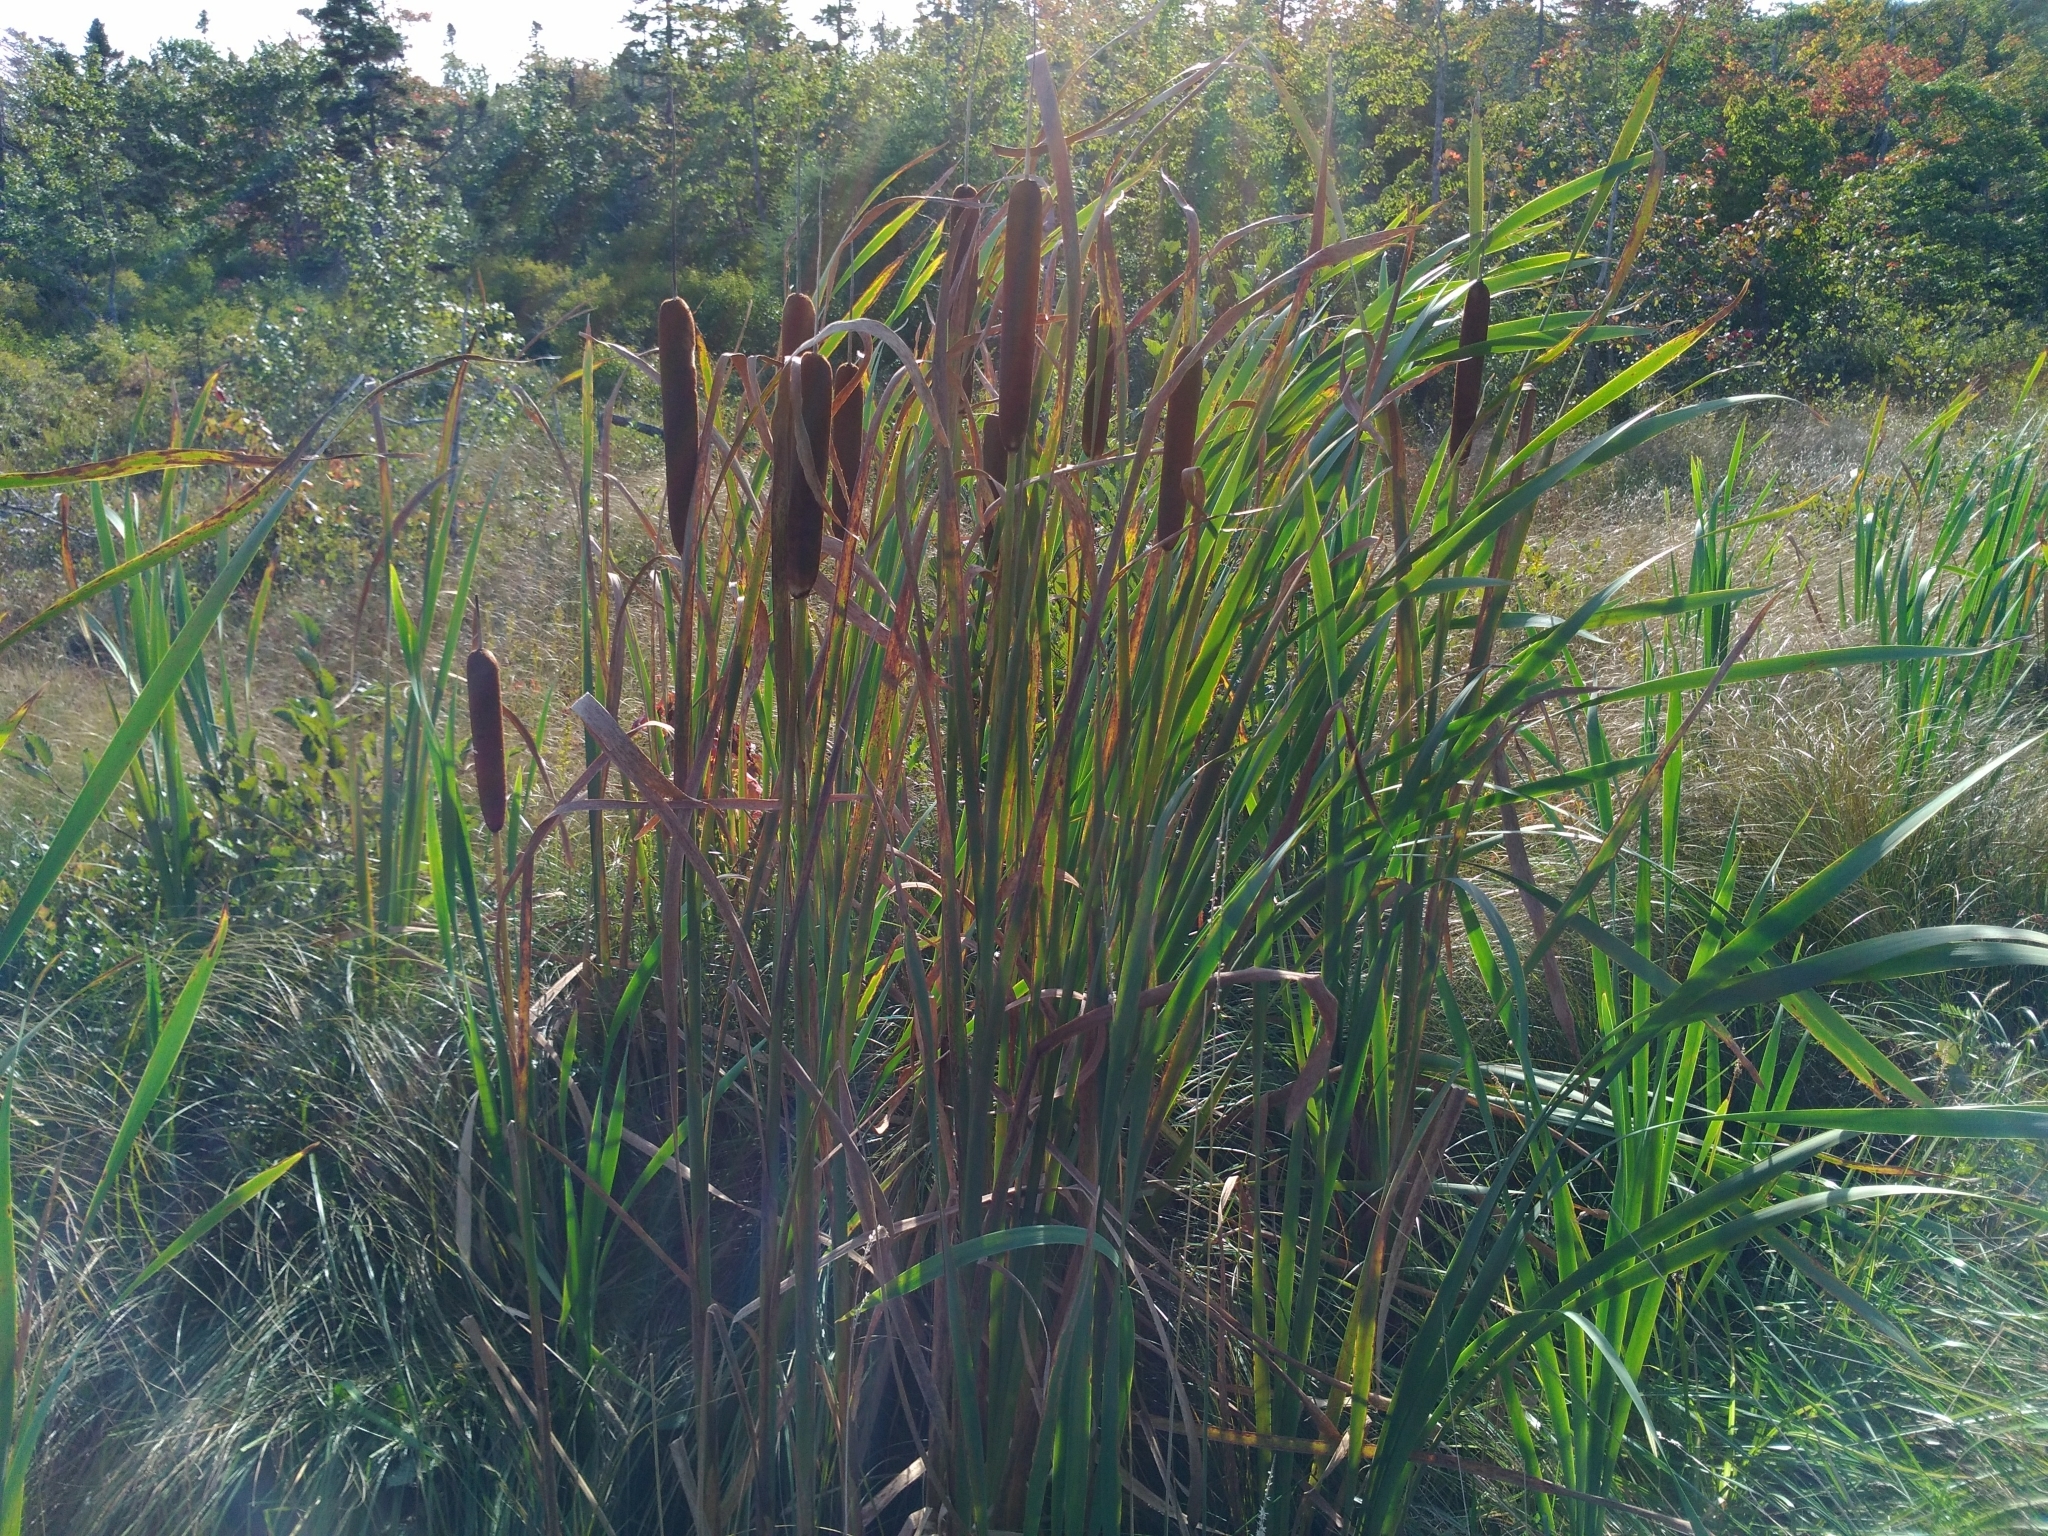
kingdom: Plantae
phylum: Tracheophyta
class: Liliopsida
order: Poales
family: Typhaceae
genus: Typha
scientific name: Typha latifolia
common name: Broadleaf cattail
